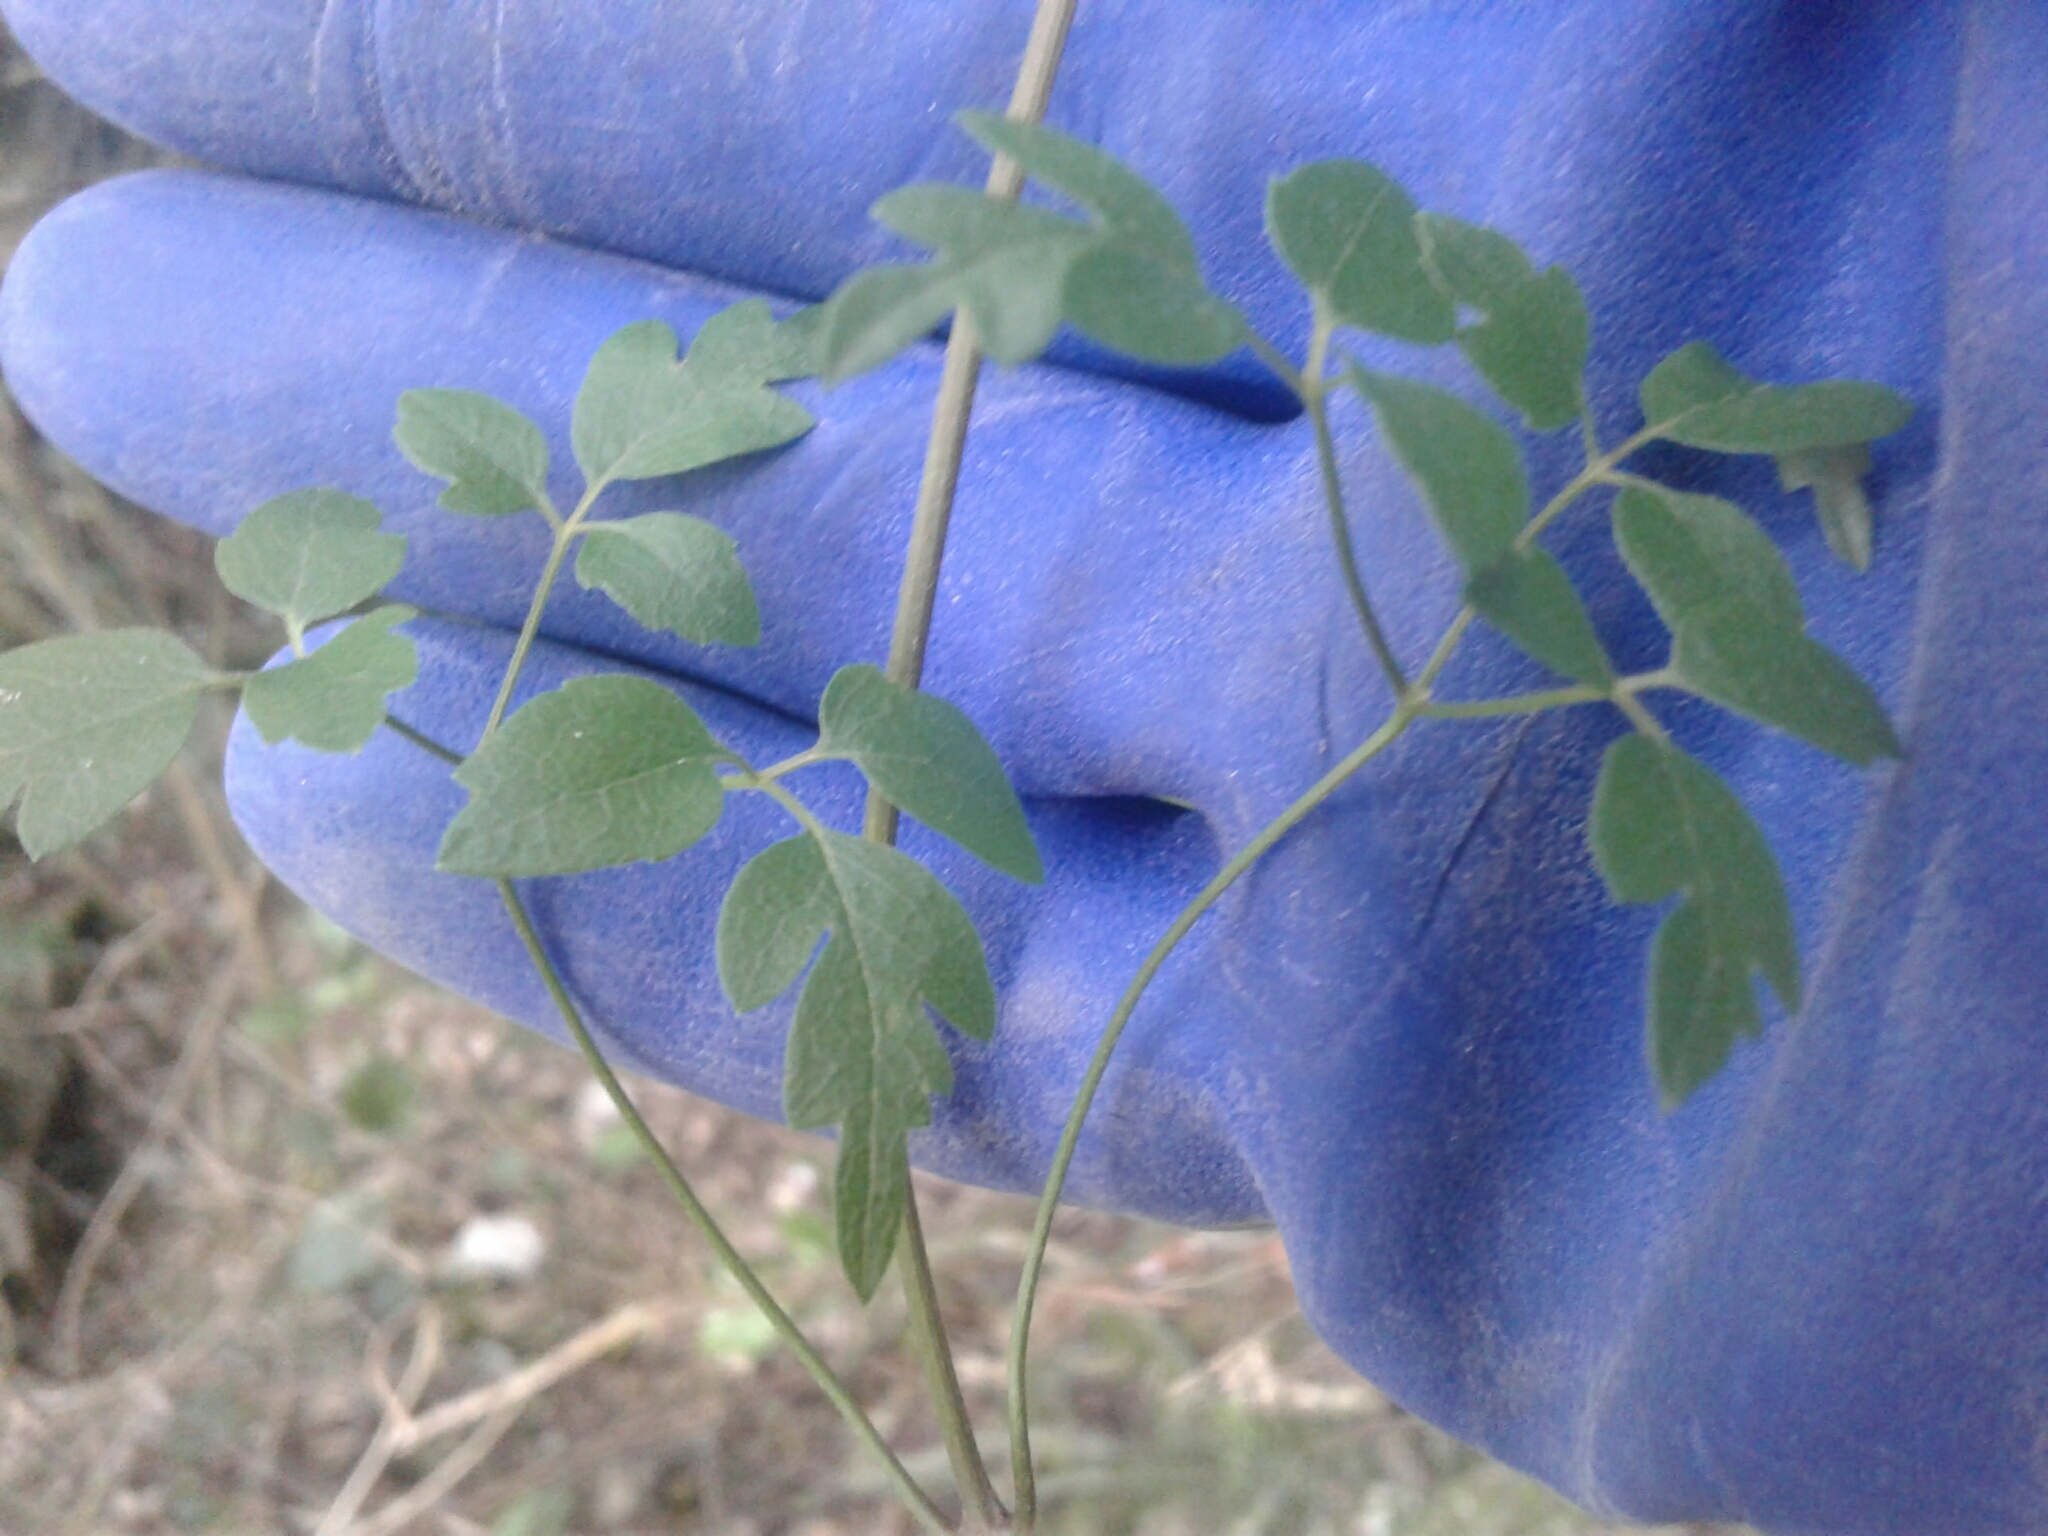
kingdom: Plantae
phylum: Tracheophyta
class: Magnoliopsida
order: Ranunculales
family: Ranunculaceae
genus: Clematis
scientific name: Clematis vitalba
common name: Evergreen clematis
